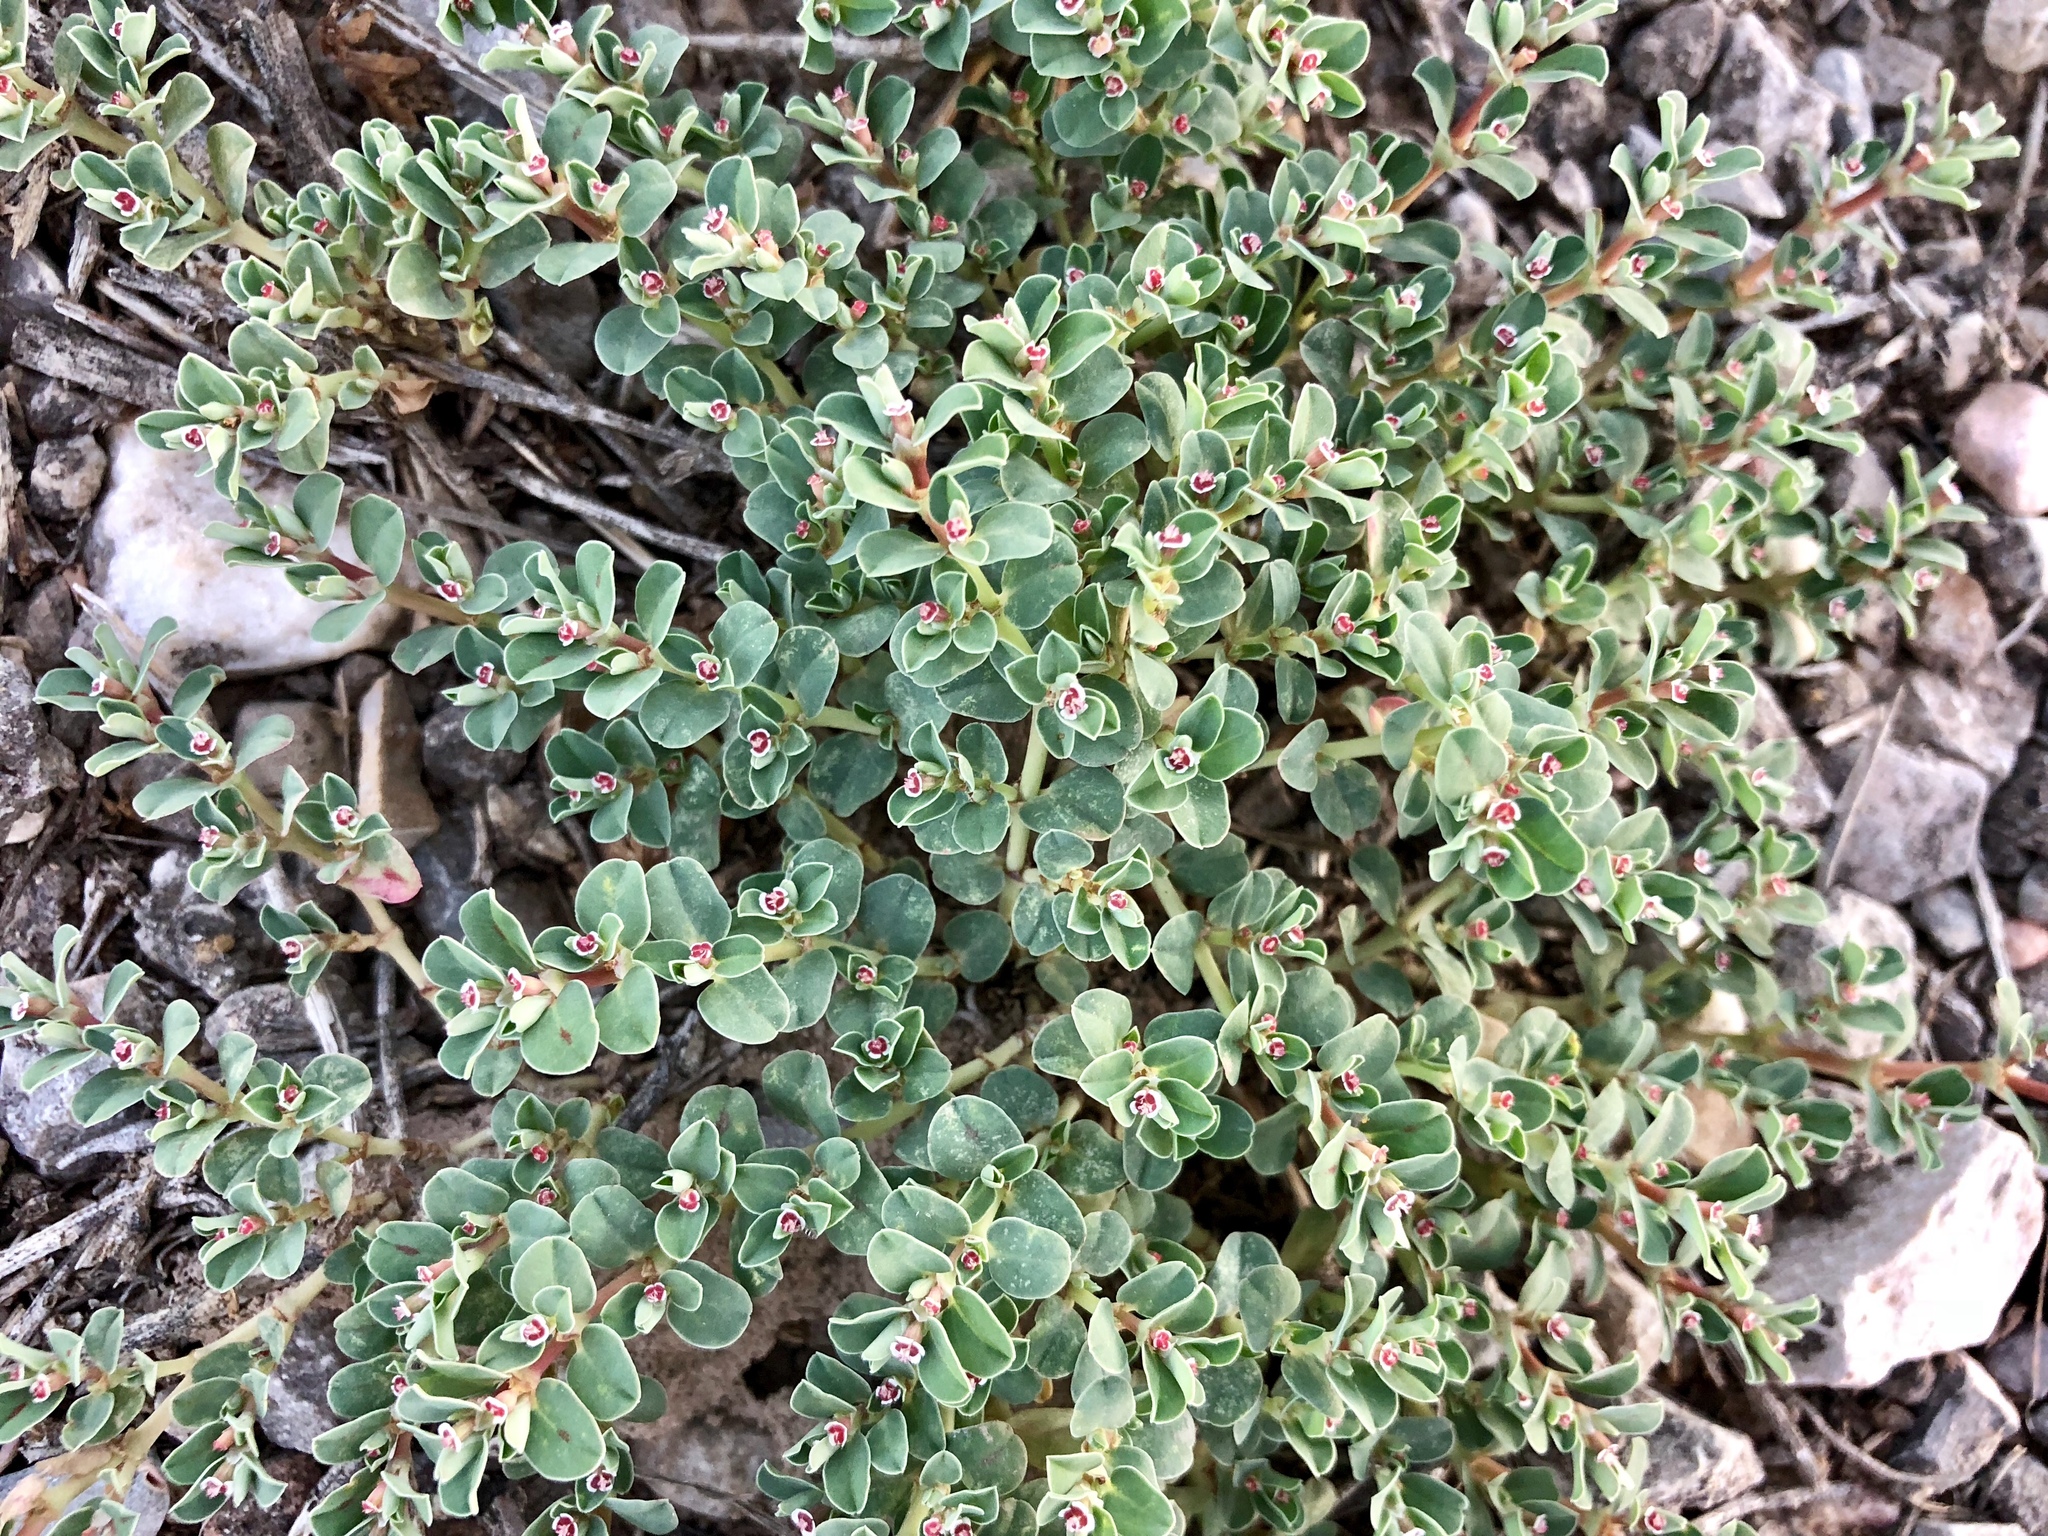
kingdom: Plantae
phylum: Tracheophyta
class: Magnoliopsida
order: Malpighiales
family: Euphorbiaceae
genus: Euphorbia
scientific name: Euphorbia albomarginata
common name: Whitemargin sandmat
